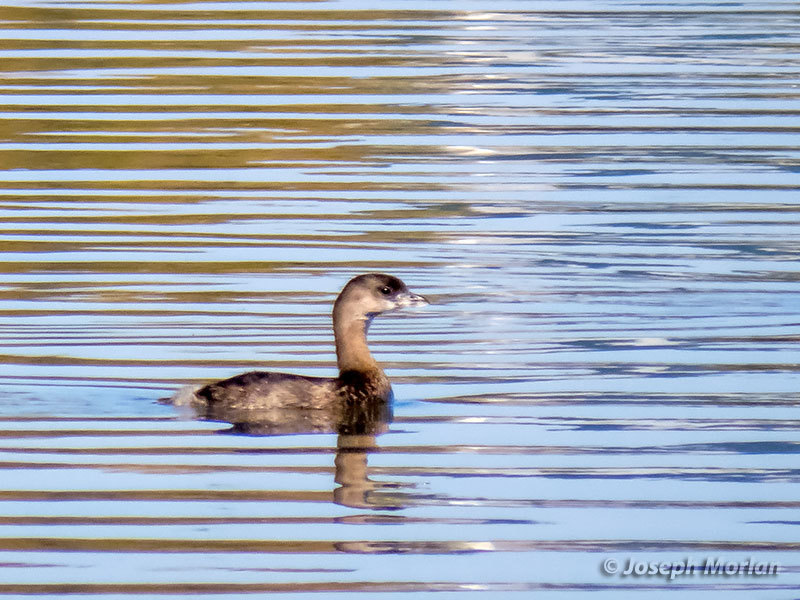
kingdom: Animalia
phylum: Chordata
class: Aves
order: Podicipediformes
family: Podicipedidae
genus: Podilymbus
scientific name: Podilymbus podiceps
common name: Pied-billed grebe
